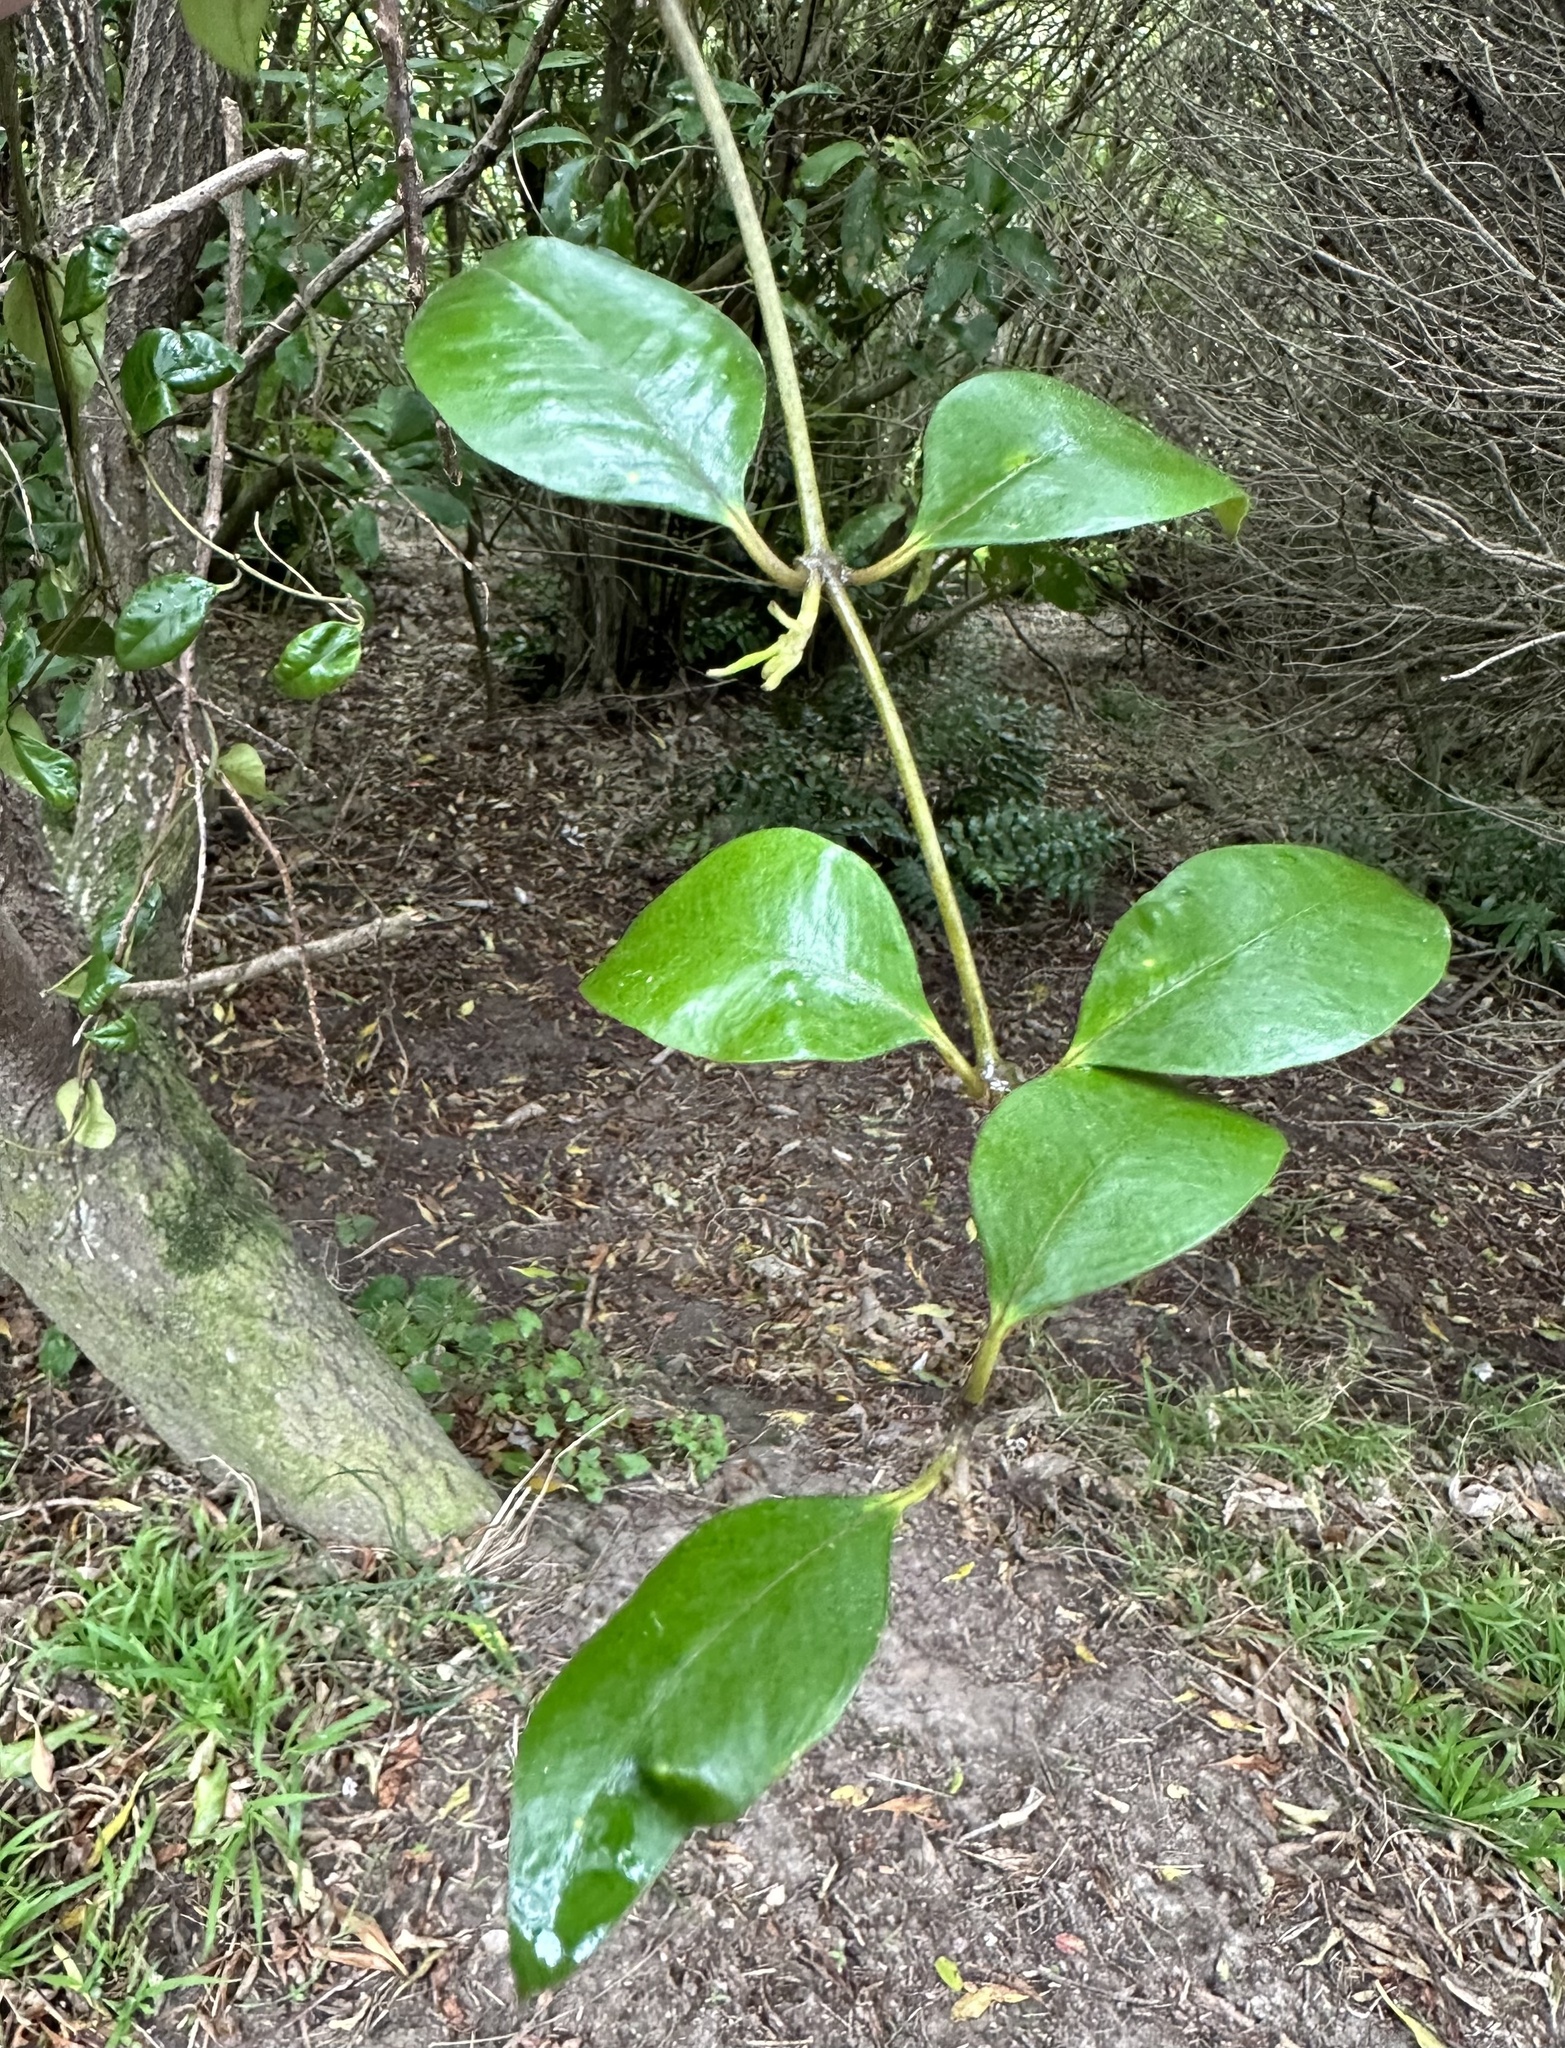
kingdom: Plantae
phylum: Tracheophyta
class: Magnoliopsida
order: Gentianales
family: Apocynaceae
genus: Parsonsia
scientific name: Parsonsia heterophylla
